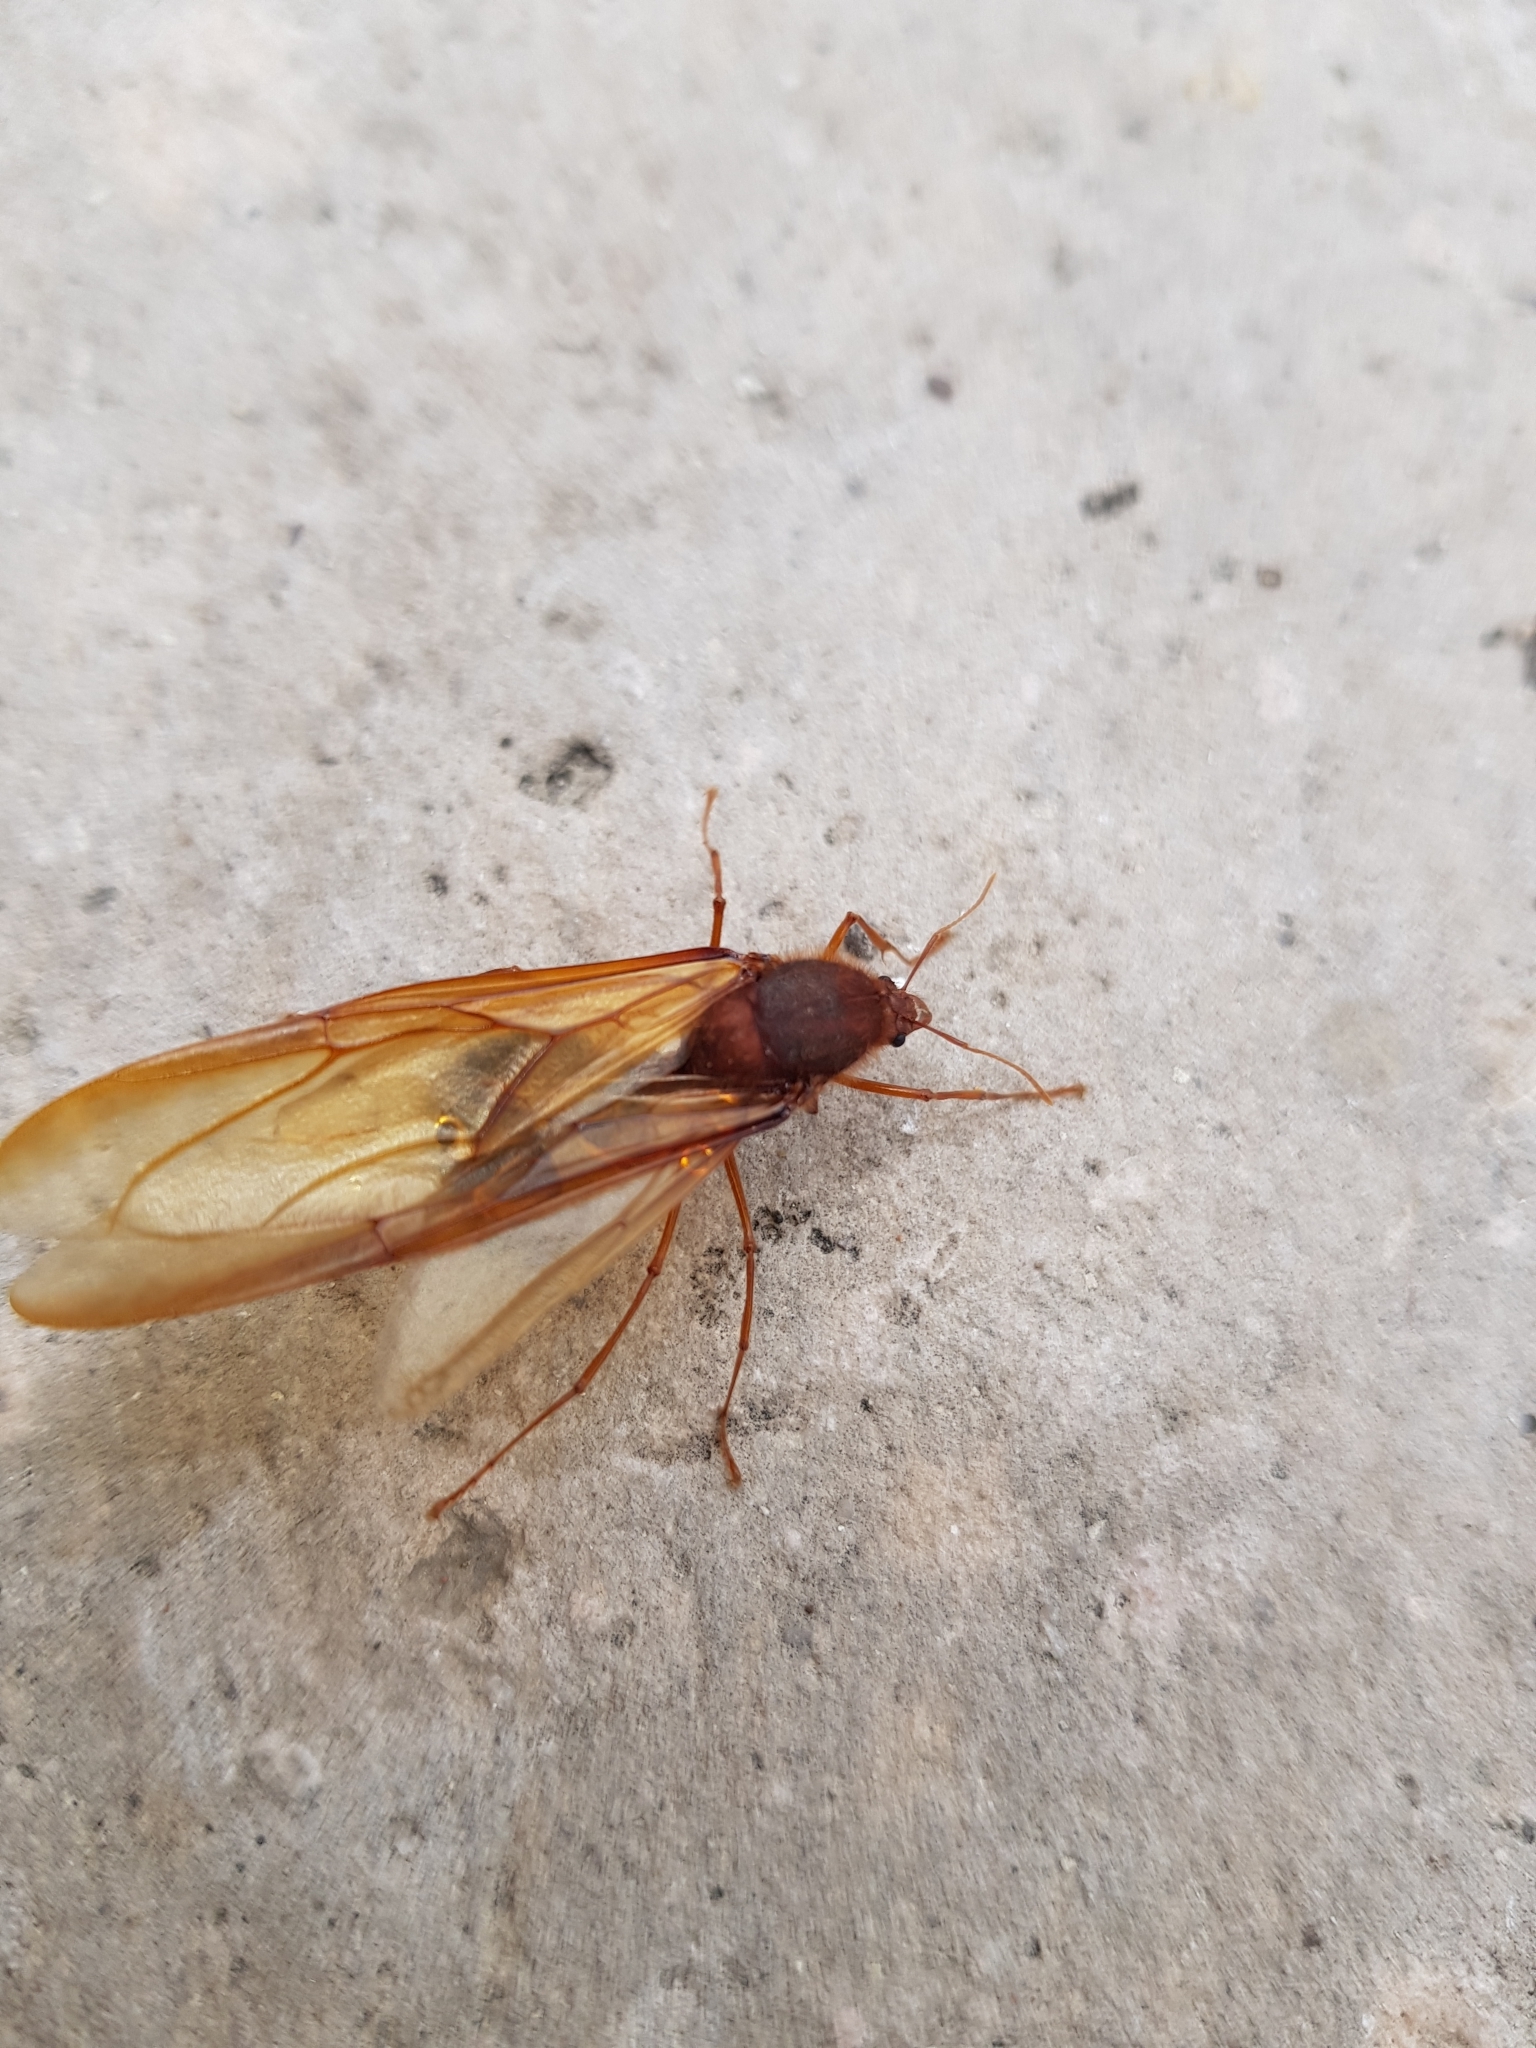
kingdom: Animalia
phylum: Arthropoda
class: Insecta
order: Hymenoptera
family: Formicidae
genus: Atta
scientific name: Atta mexicana
